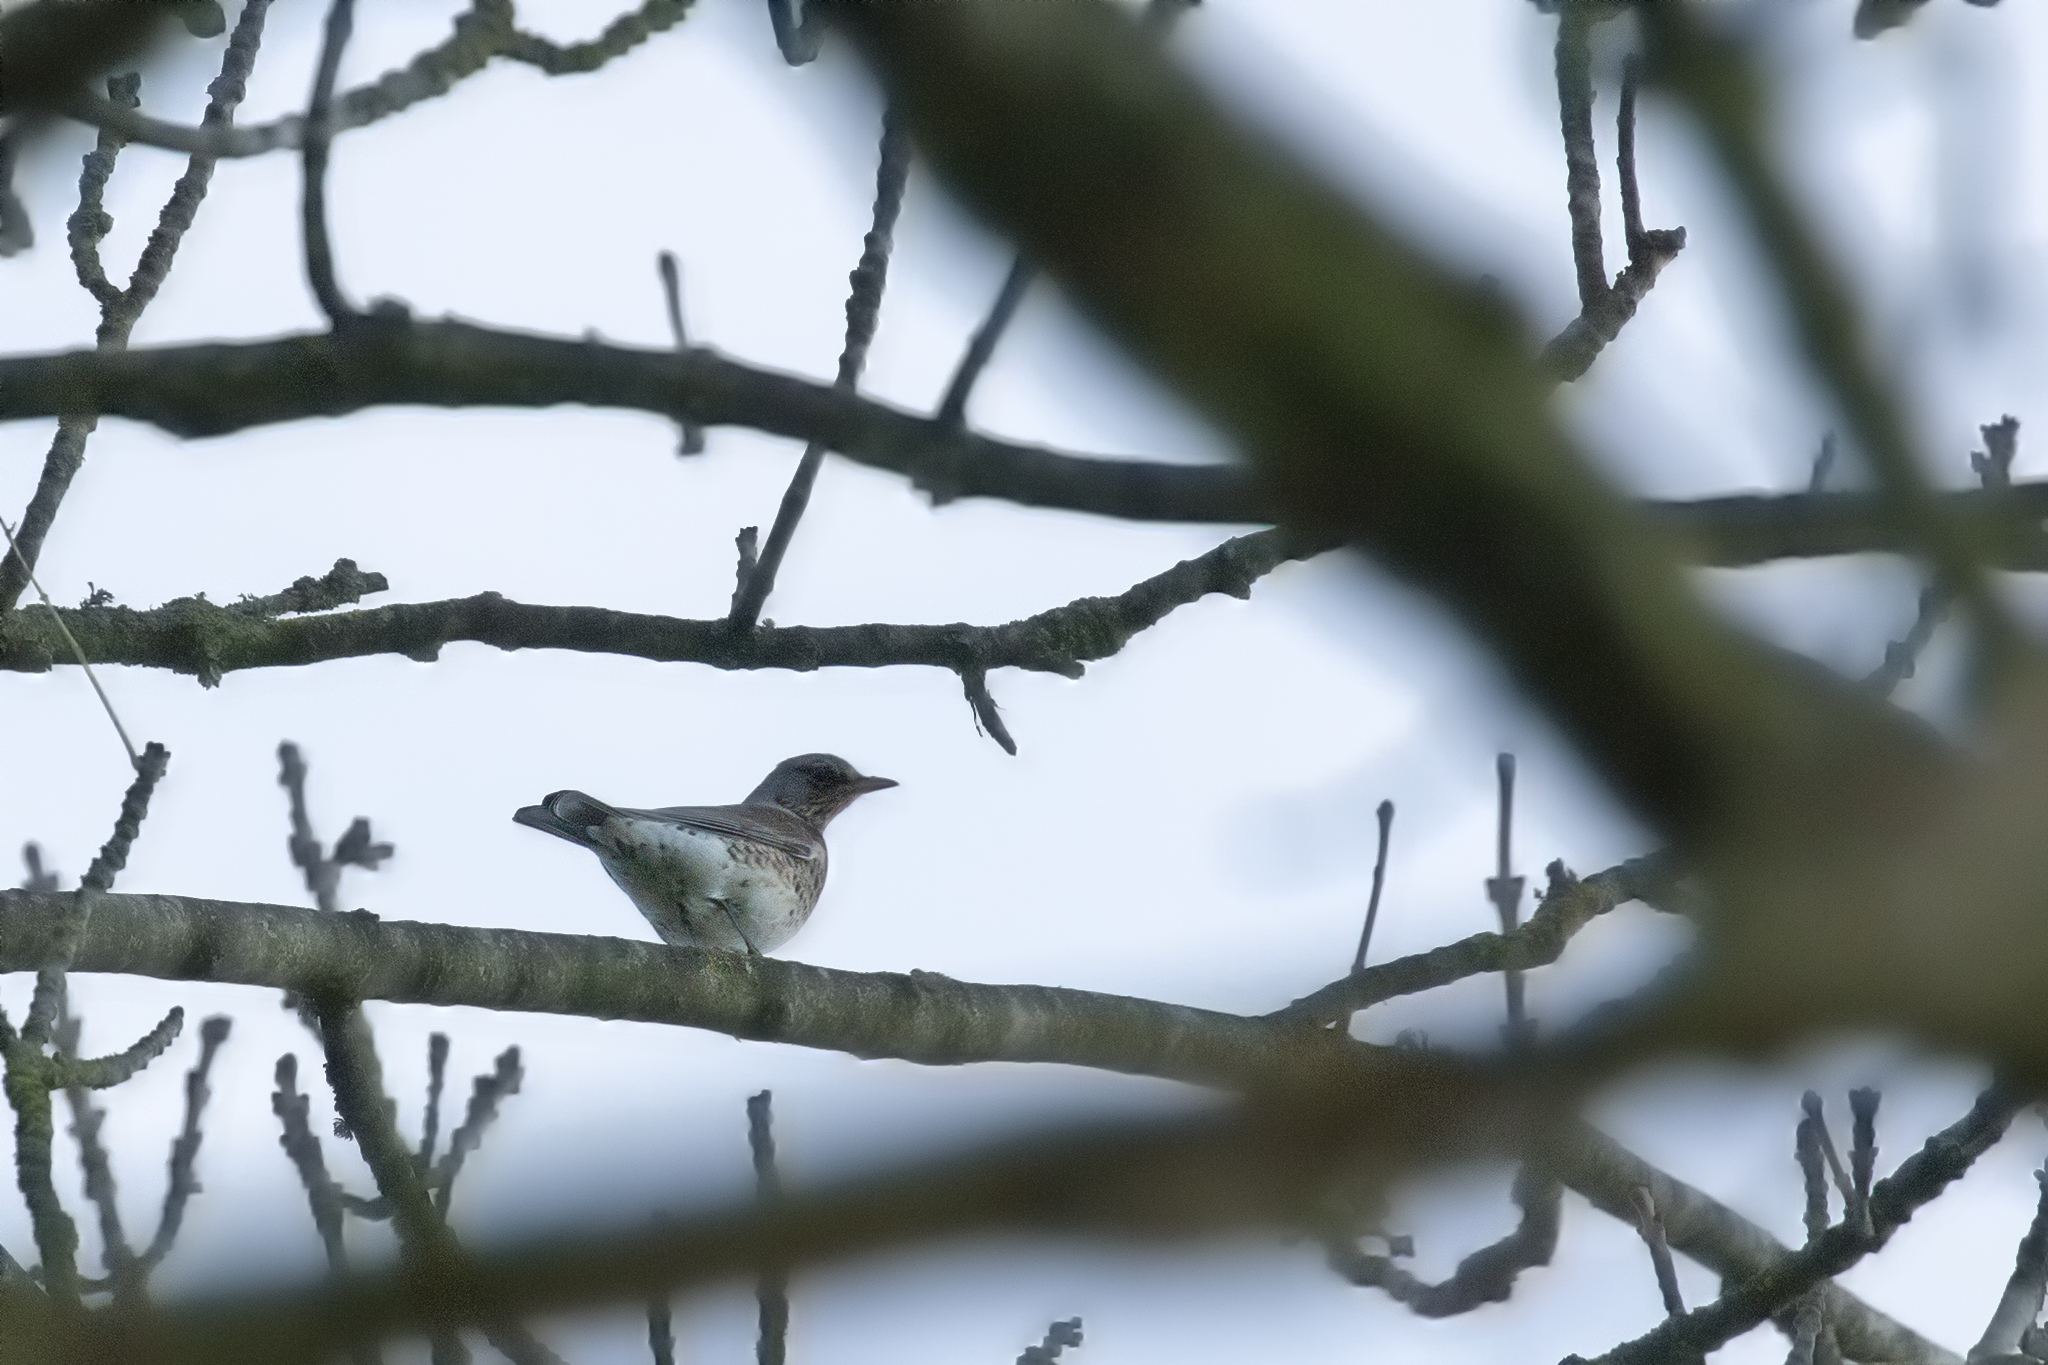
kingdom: Animalia
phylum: Chordata
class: Aves
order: Passeriformes
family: Turdidae
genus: Turdus
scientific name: Turdus pilaris
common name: Fieldfare
